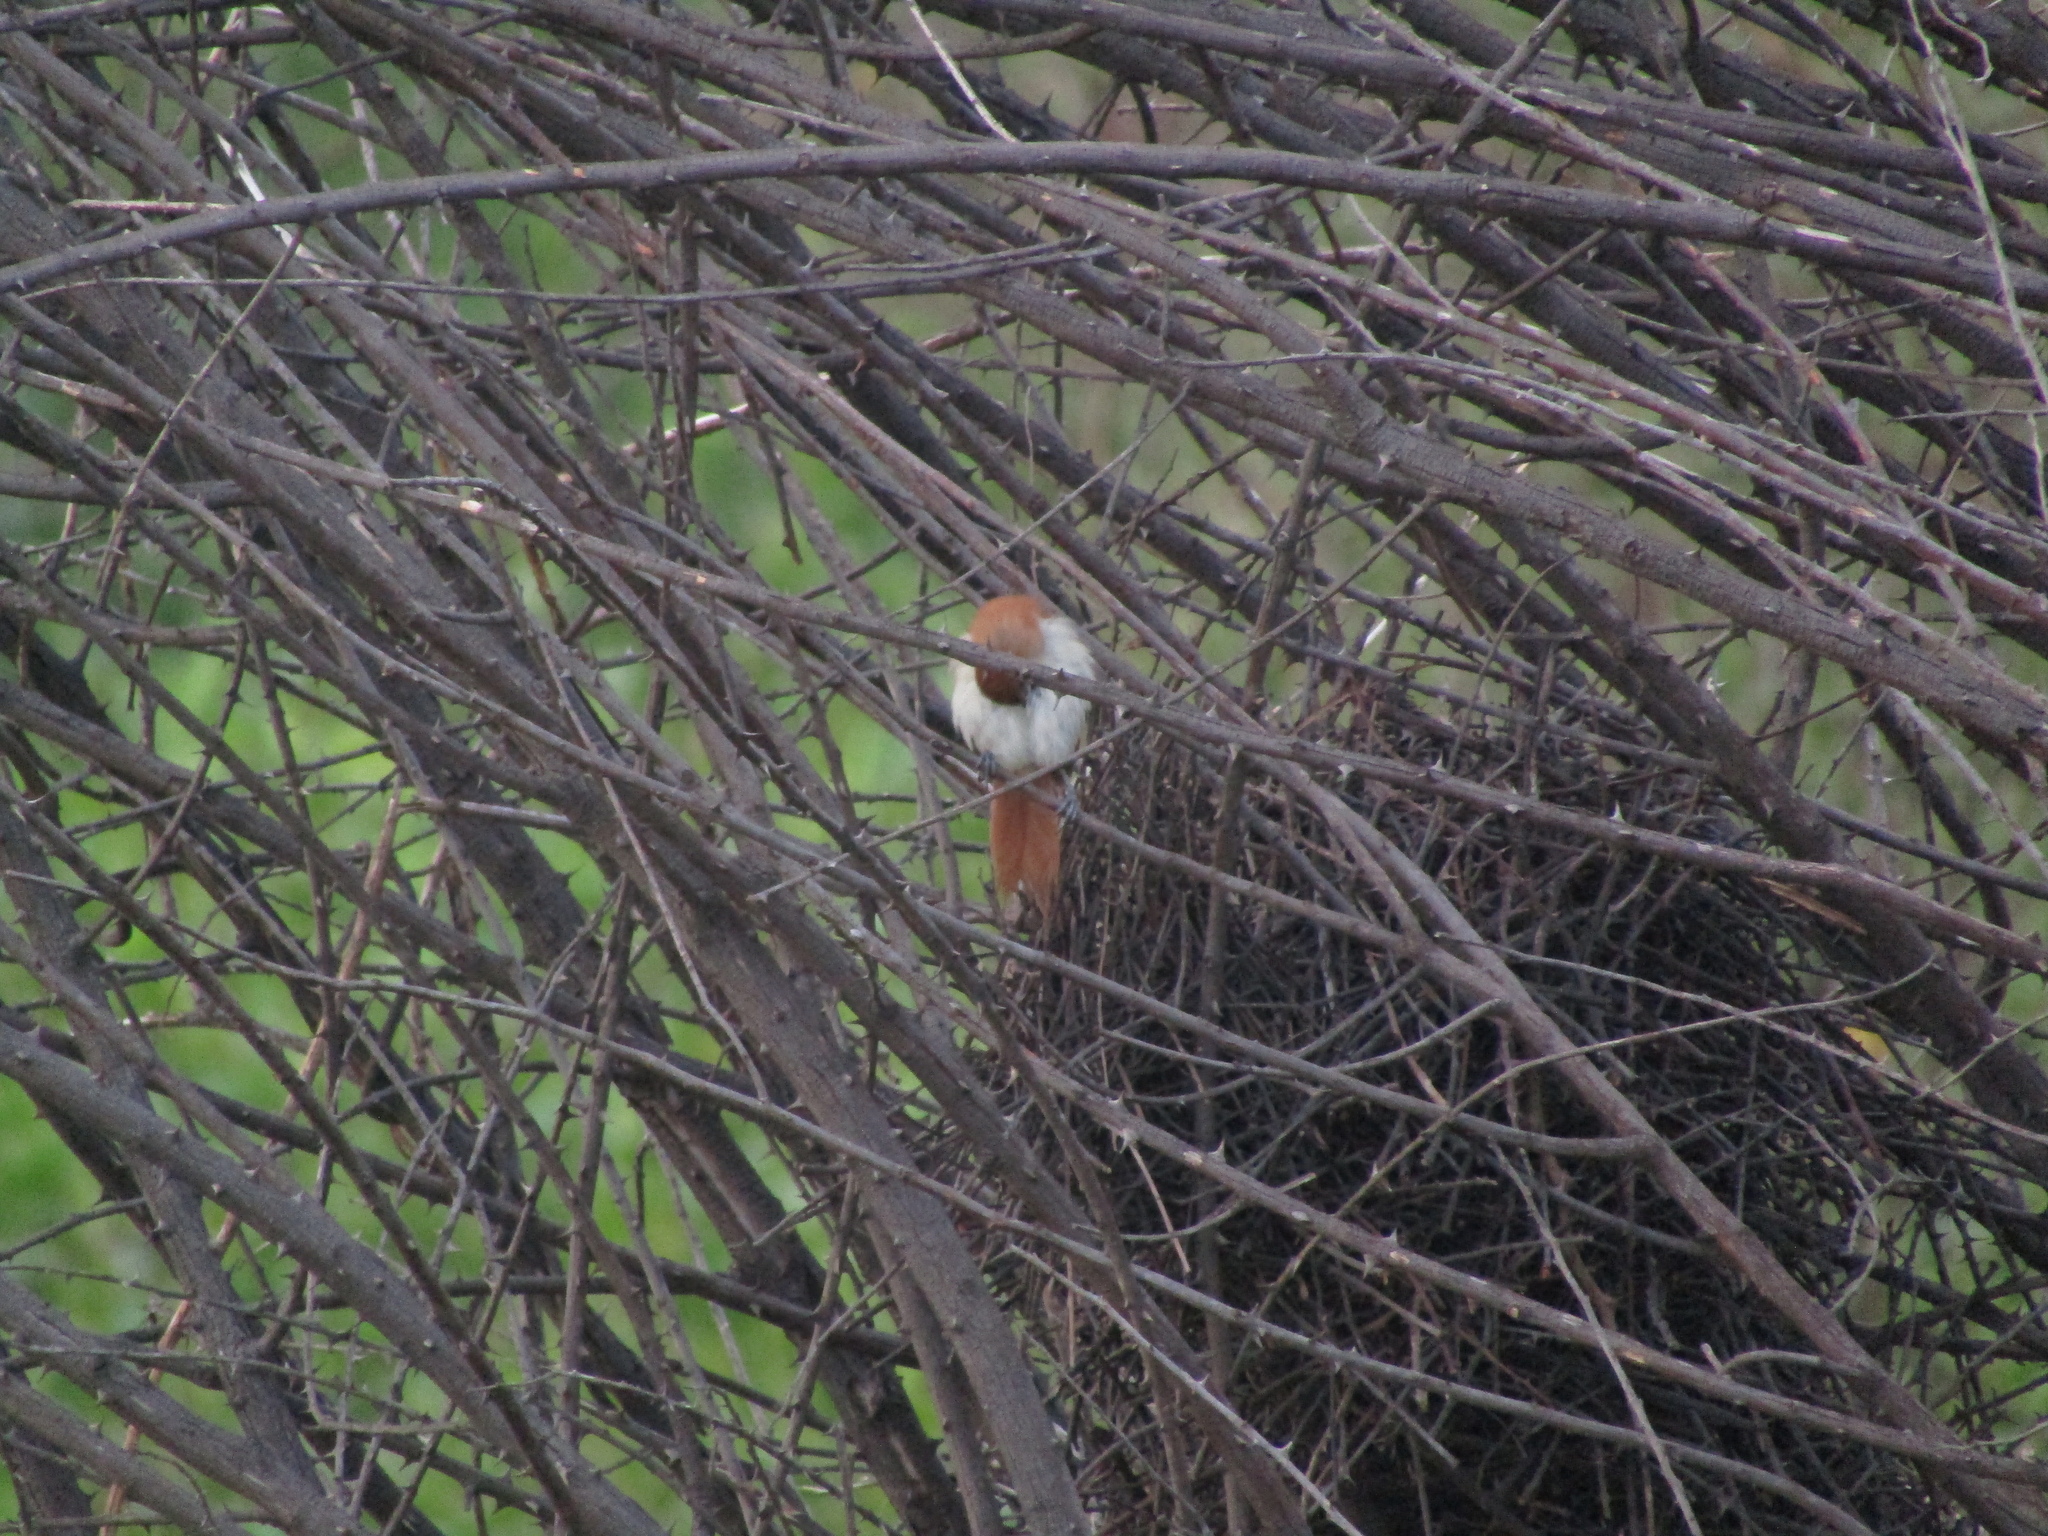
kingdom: Animalia
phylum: Chordata
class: Aves
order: Passeriformes
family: Furnariidae
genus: Certhiaxis
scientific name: Certhiaxis cinnamomeus
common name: Yellow-chinned spinetail
